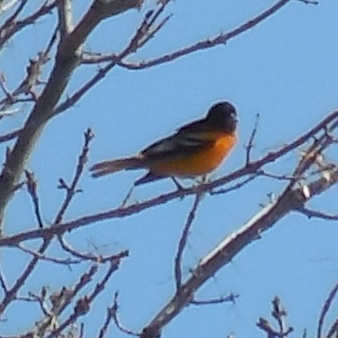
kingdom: Animalia
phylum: Chordata
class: Aves
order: Passeriformes
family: Icteridae
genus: Icterus
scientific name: Icterus galbula
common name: Baltimore oriole
